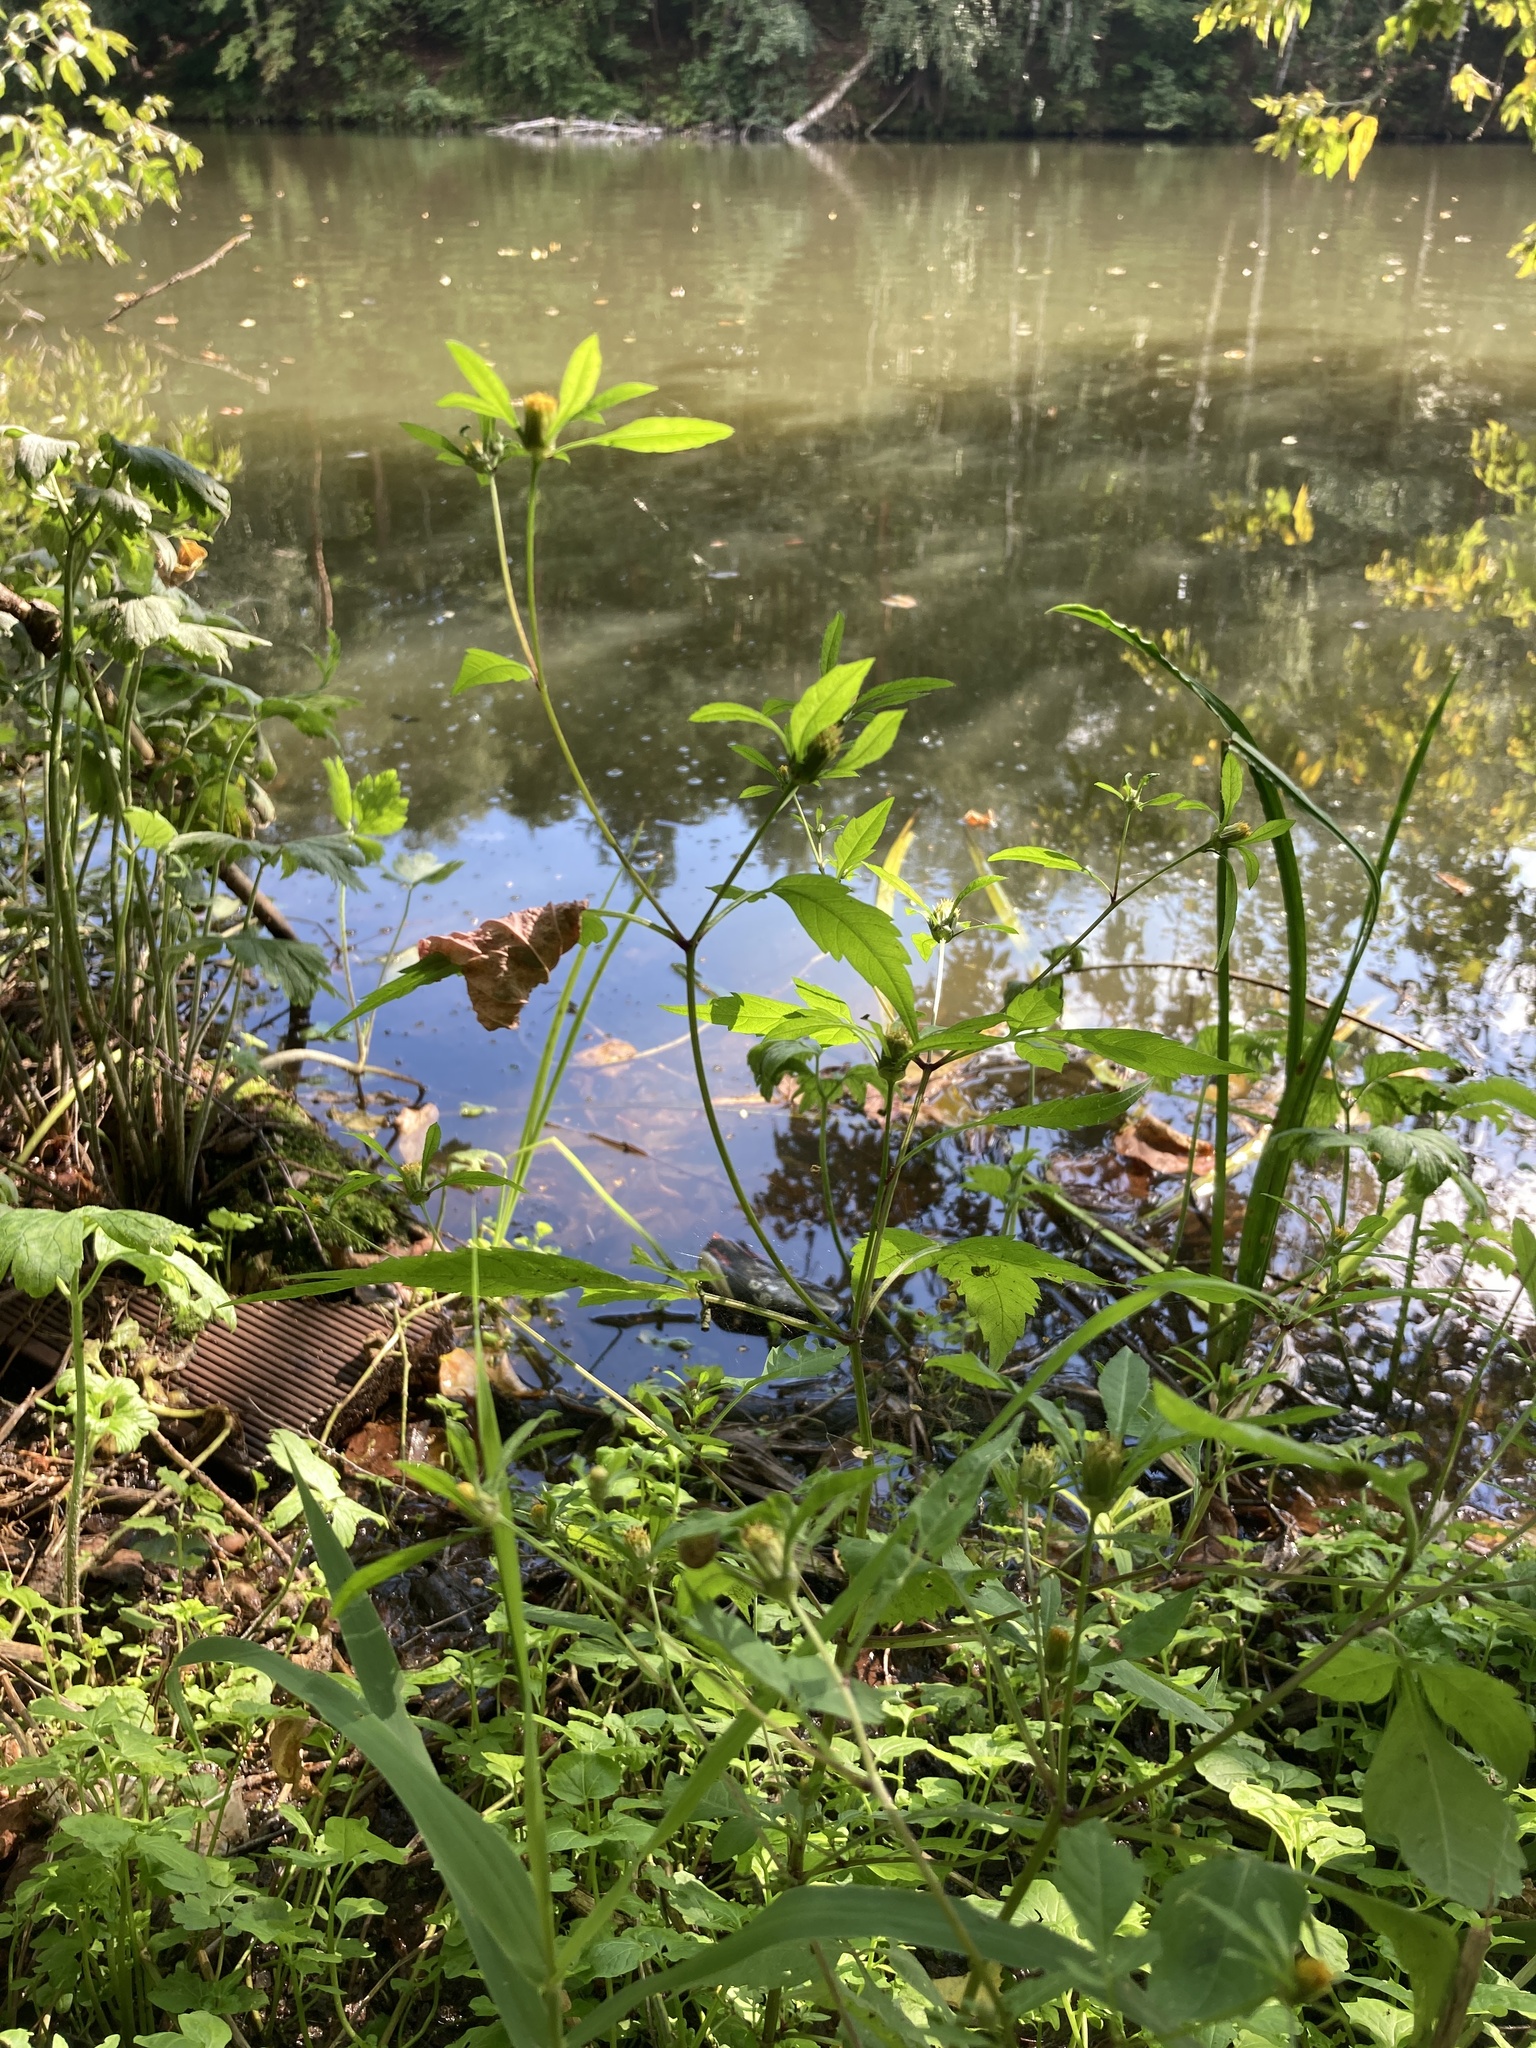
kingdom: Plantae
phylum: Tracheophyta
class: Magnoliopsida
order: Asterales
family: Asteraceae
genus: Bidens
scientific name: Bidens frondosa
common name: Beggarticks
